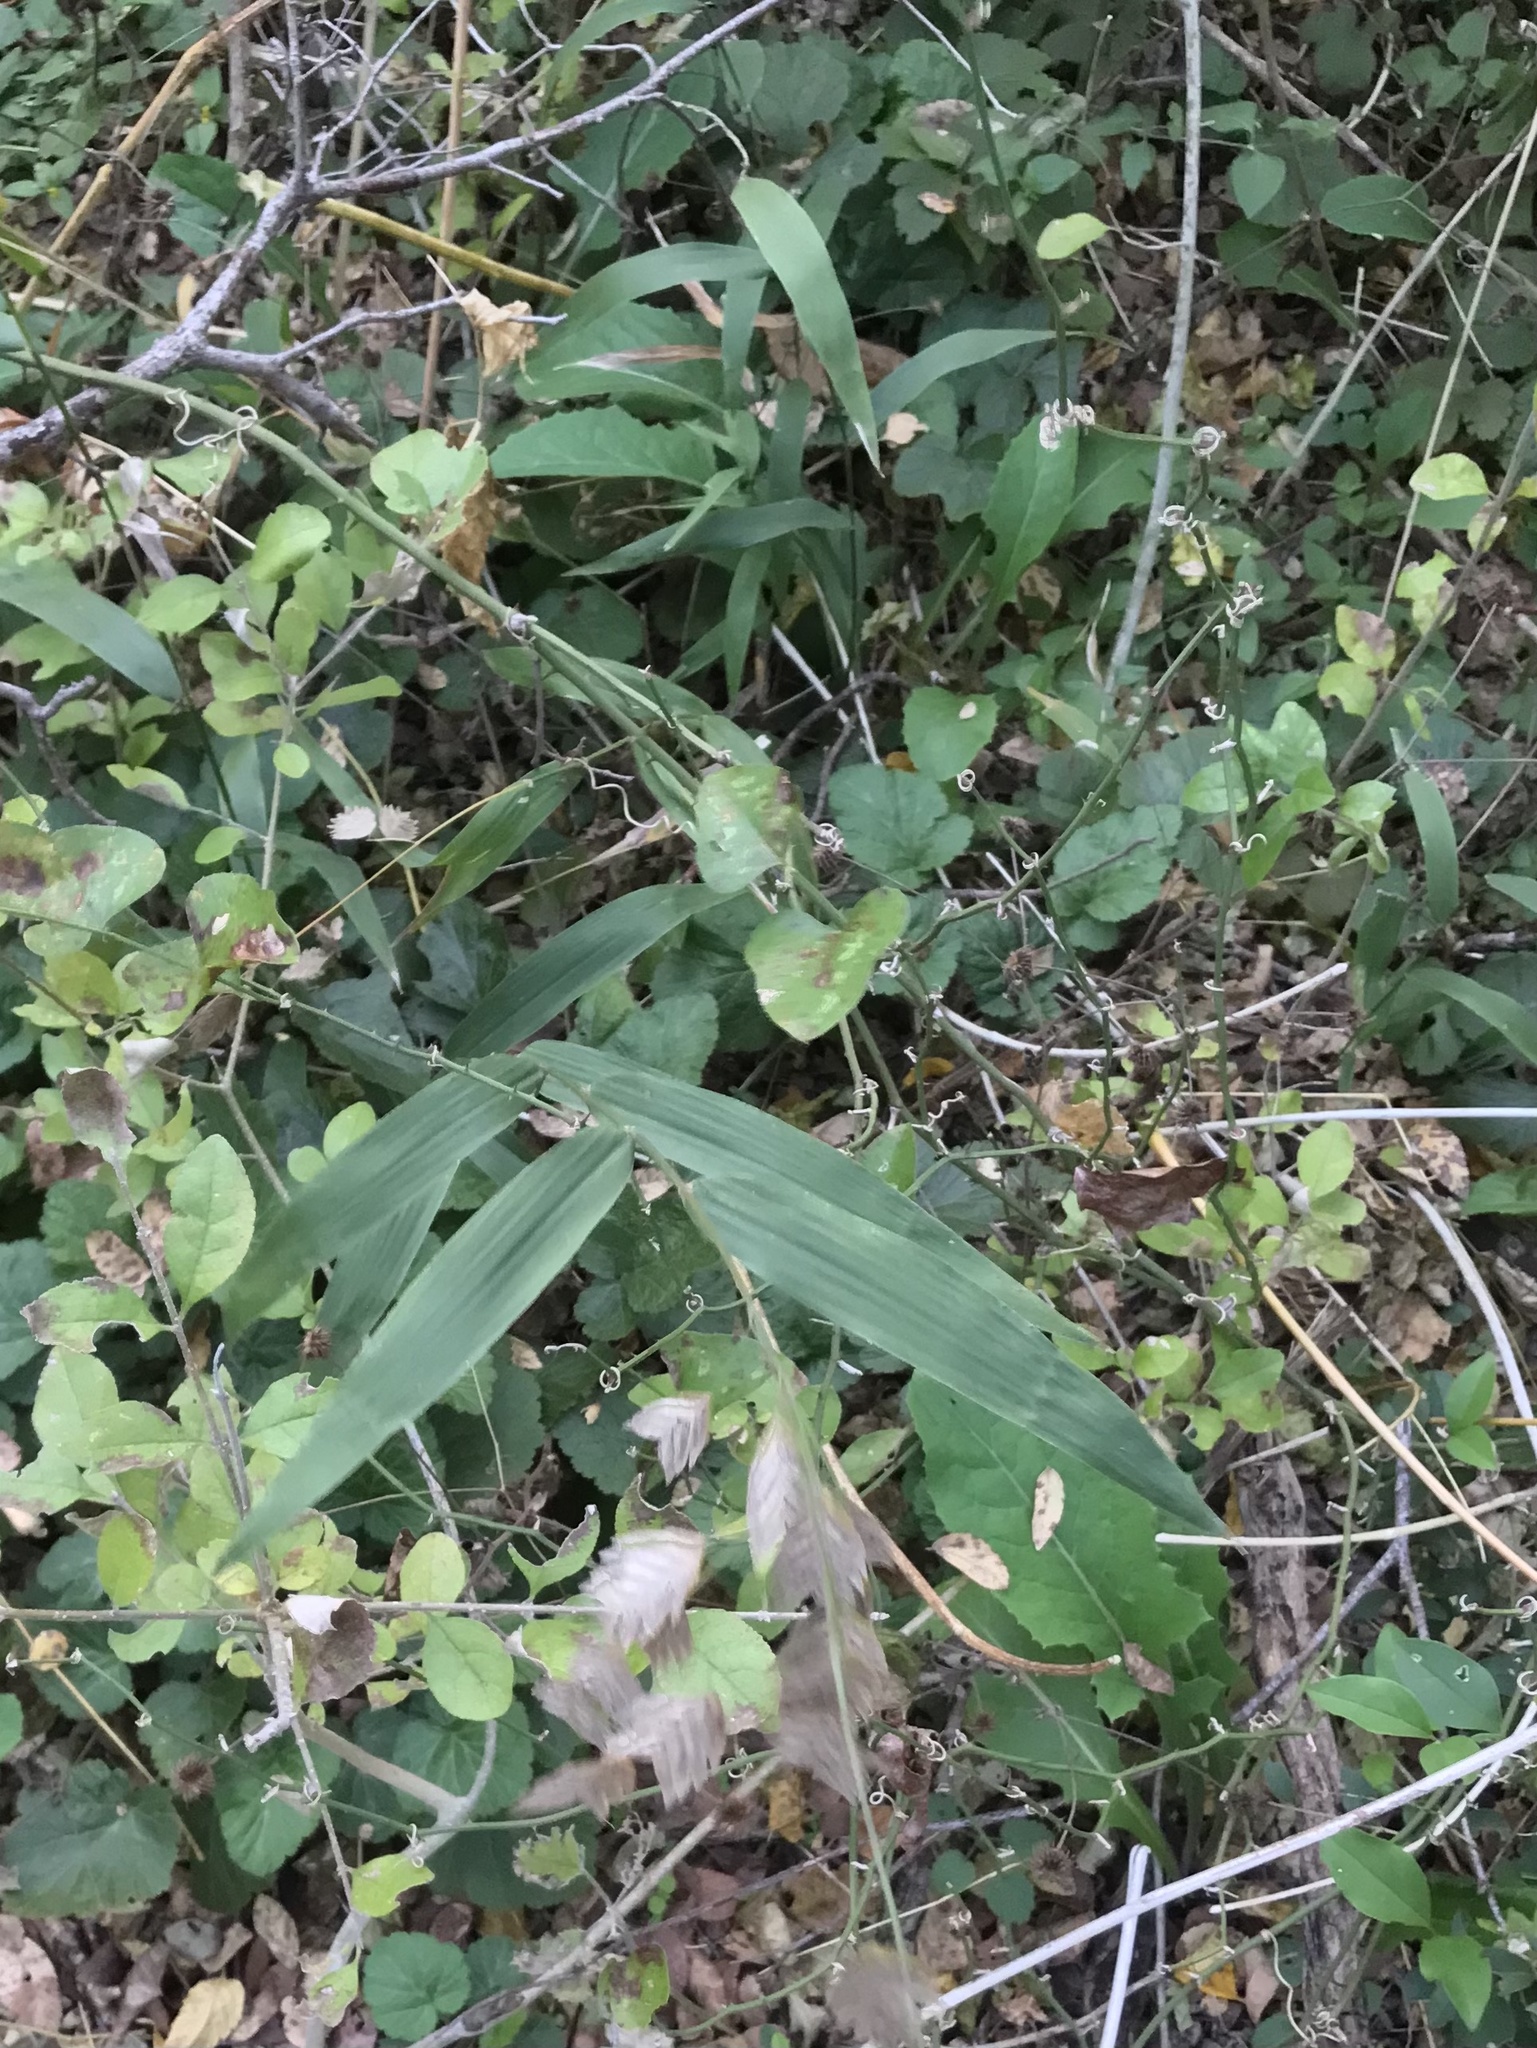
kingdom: Plantae
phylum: Tracheophyta
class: Liliopsida
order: Poales
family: Poaceae
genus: Chasmanthium
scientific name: Chasmanthium latifolium
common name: Broad-leaved chasmanthium
